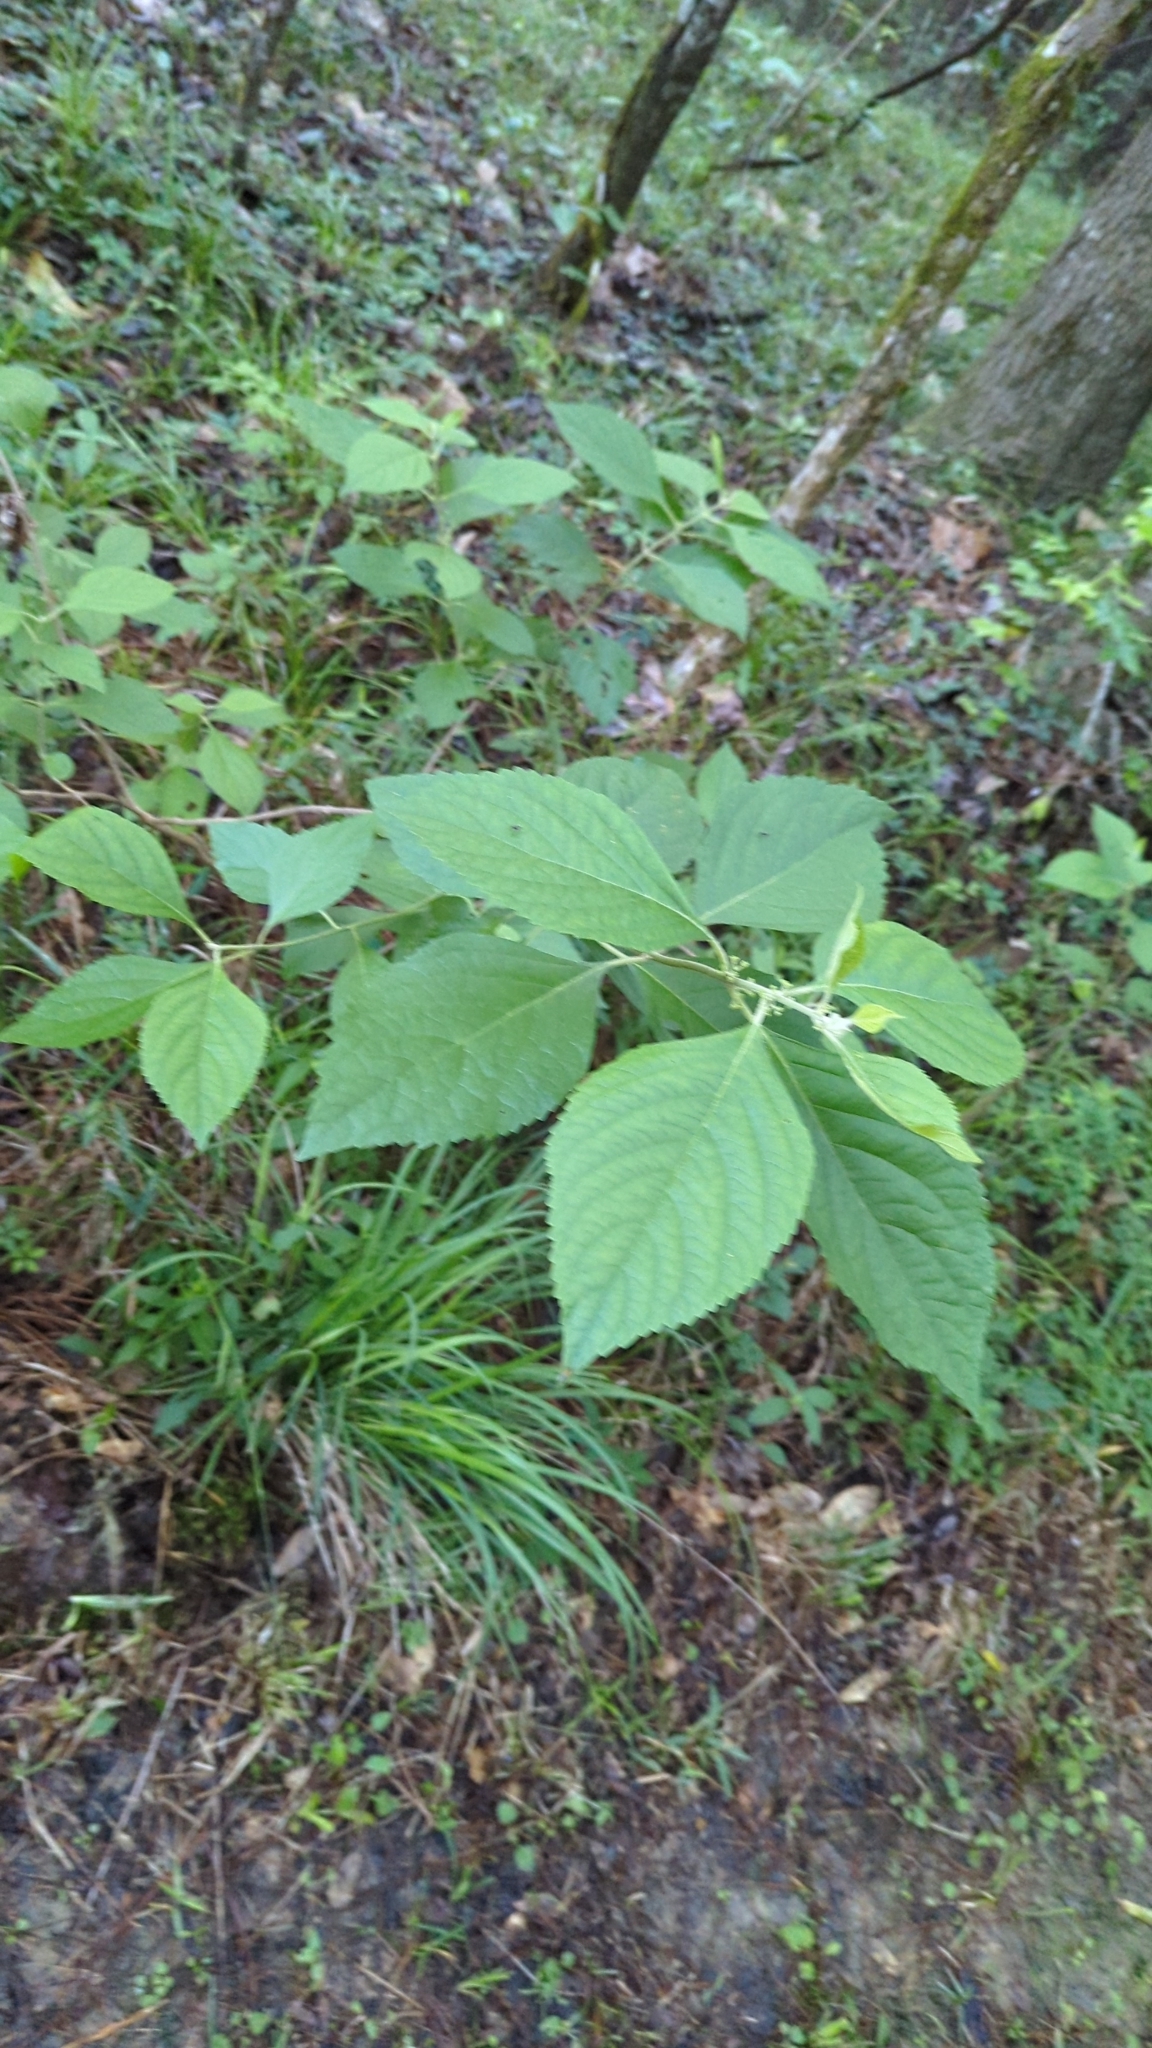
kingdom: Plantae
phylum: Tracheophyta
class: Magnoliopsida
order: Lamiales
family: Lamiaceae
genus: Callicarpa
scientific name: Callicarpa americana
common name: American beautyberry
